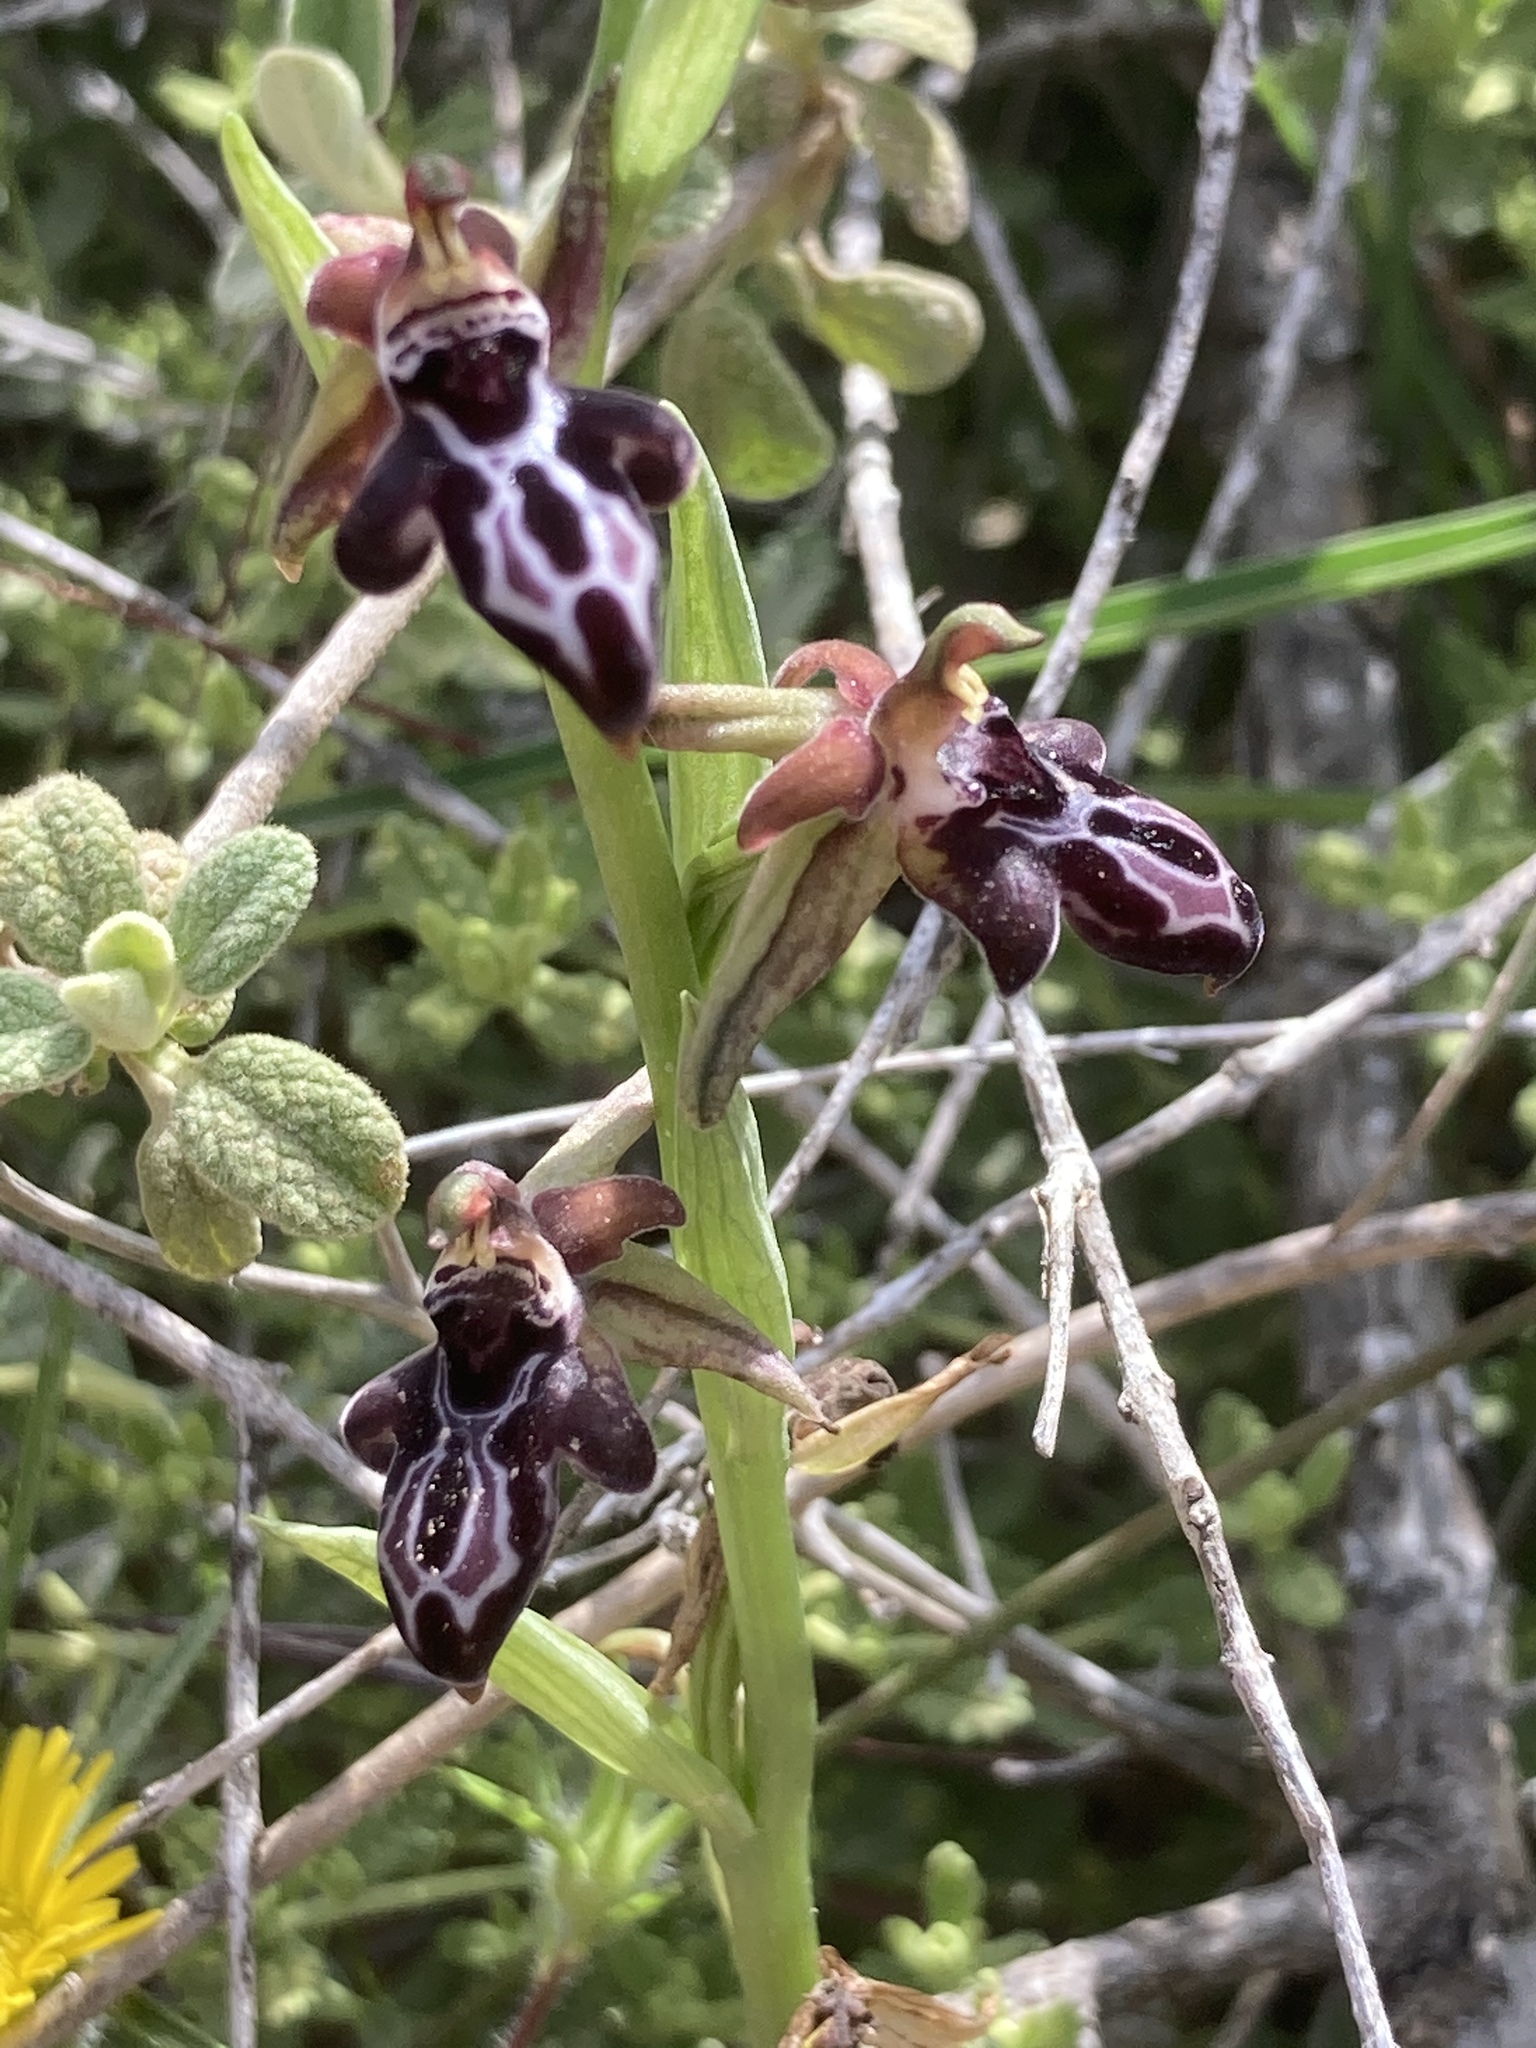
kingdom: Plantae
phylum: Tracheophyta
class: Liliopsida
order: Asparagales
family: Orchidaceae
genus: Ophrys
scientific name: Ophrys cretica
